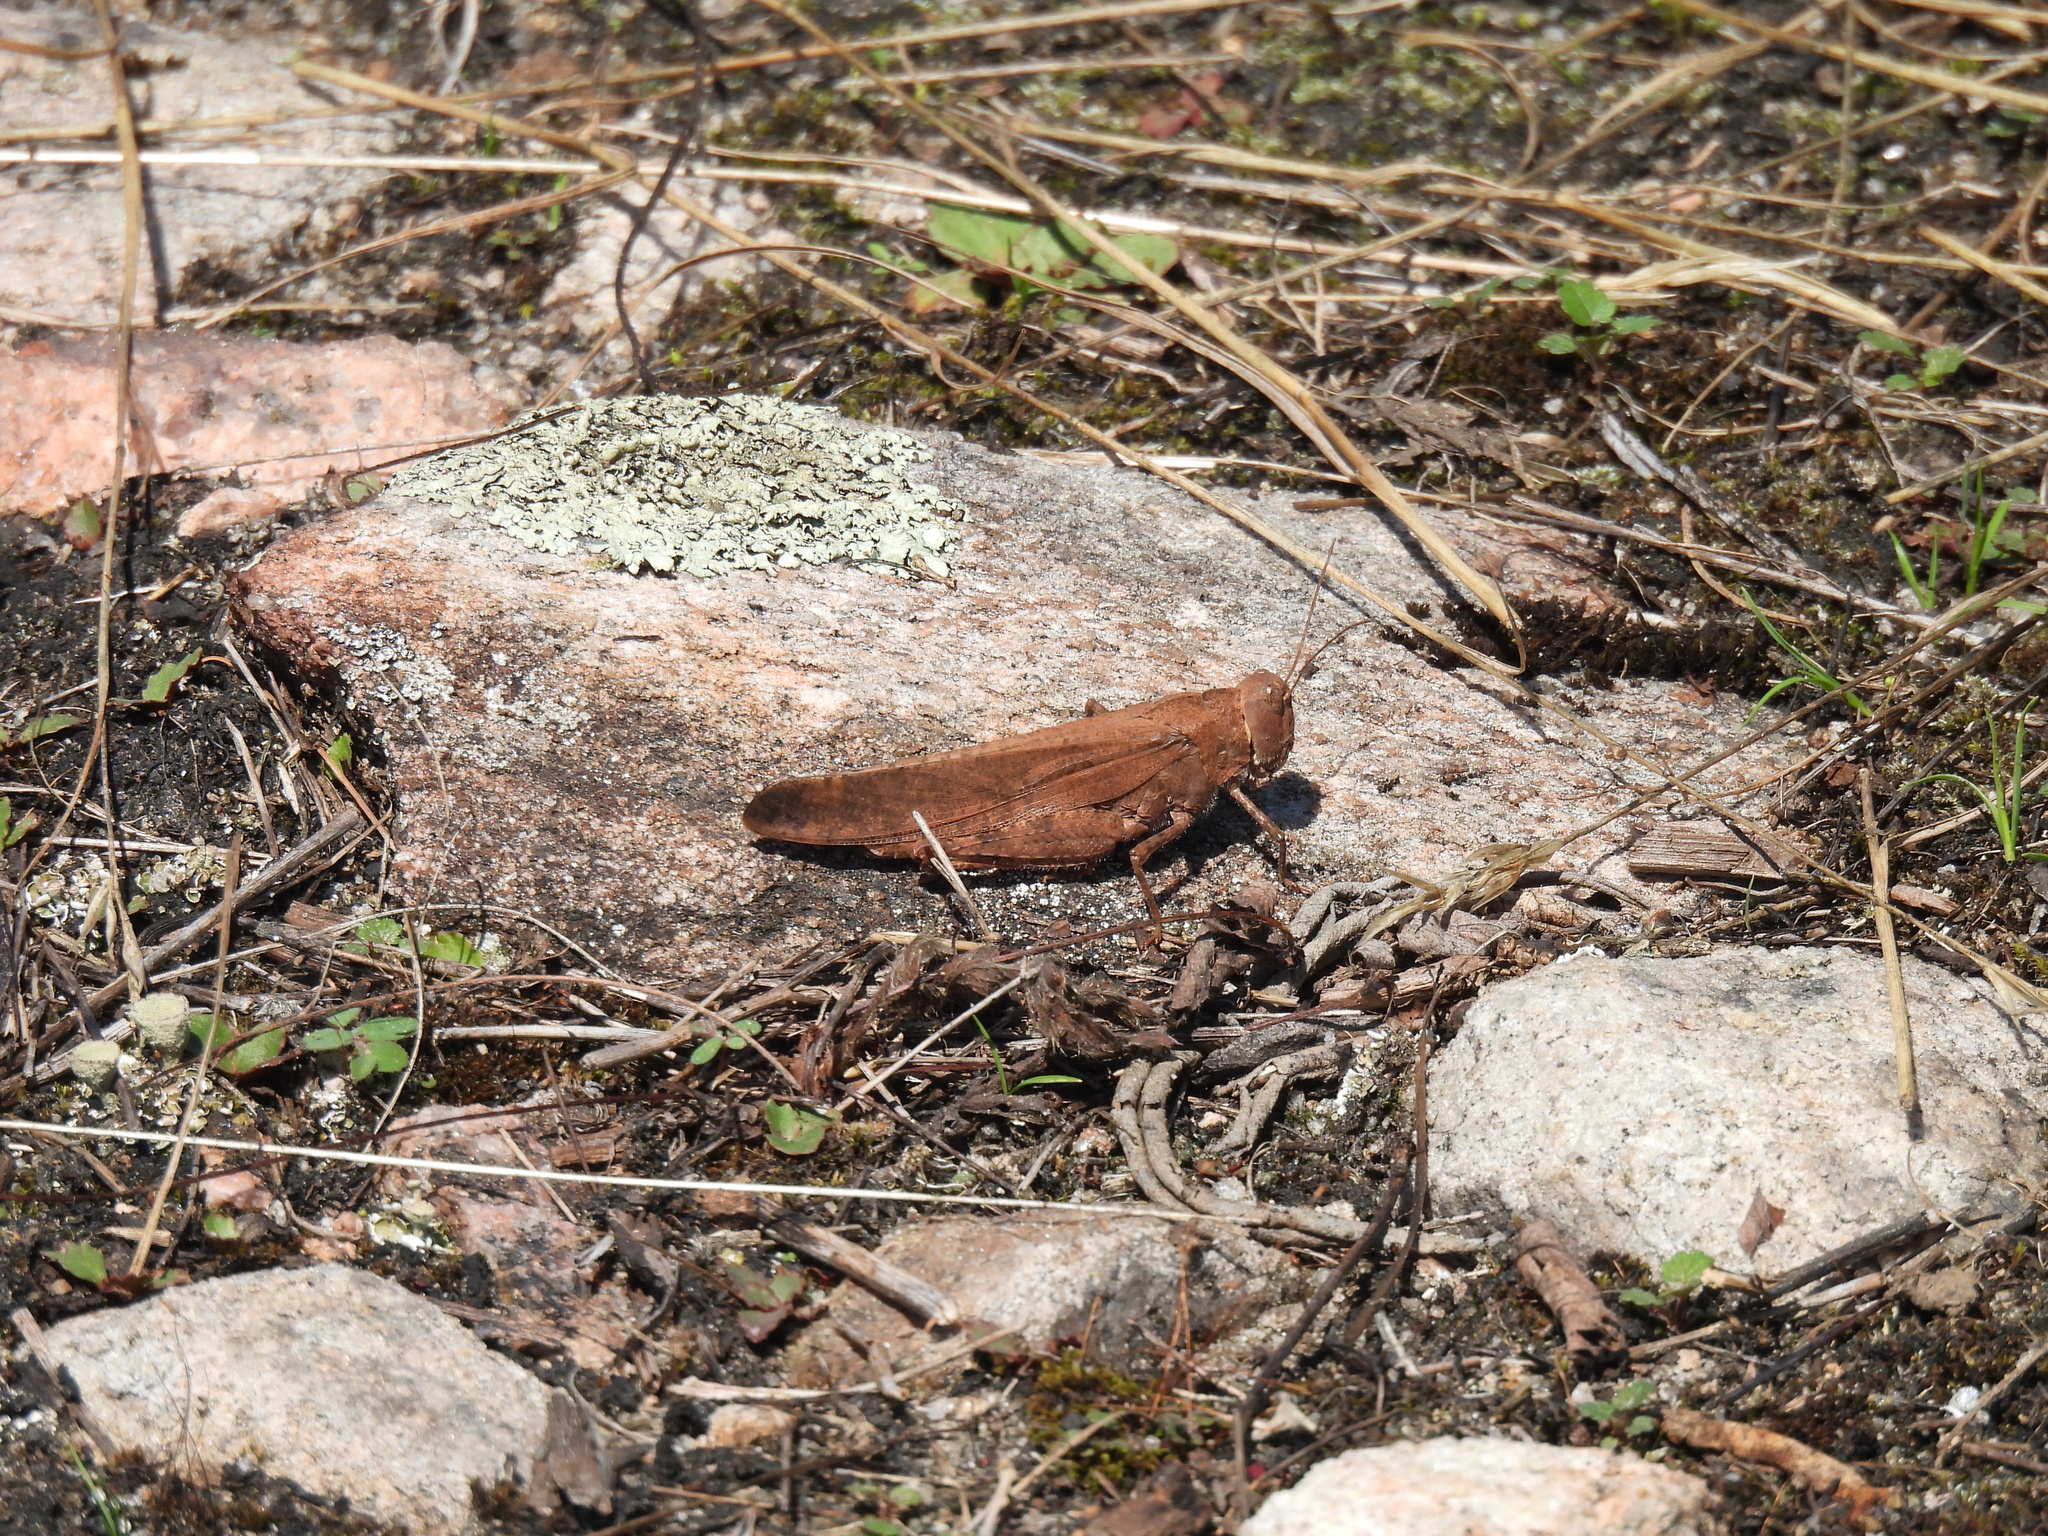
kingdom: Animalia
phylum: Arthropoda
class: Insecta
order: Orthoptera
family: Acrididae
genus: Dissosteira
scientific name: Dissosteira carolina
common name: Carolina grasshopper
